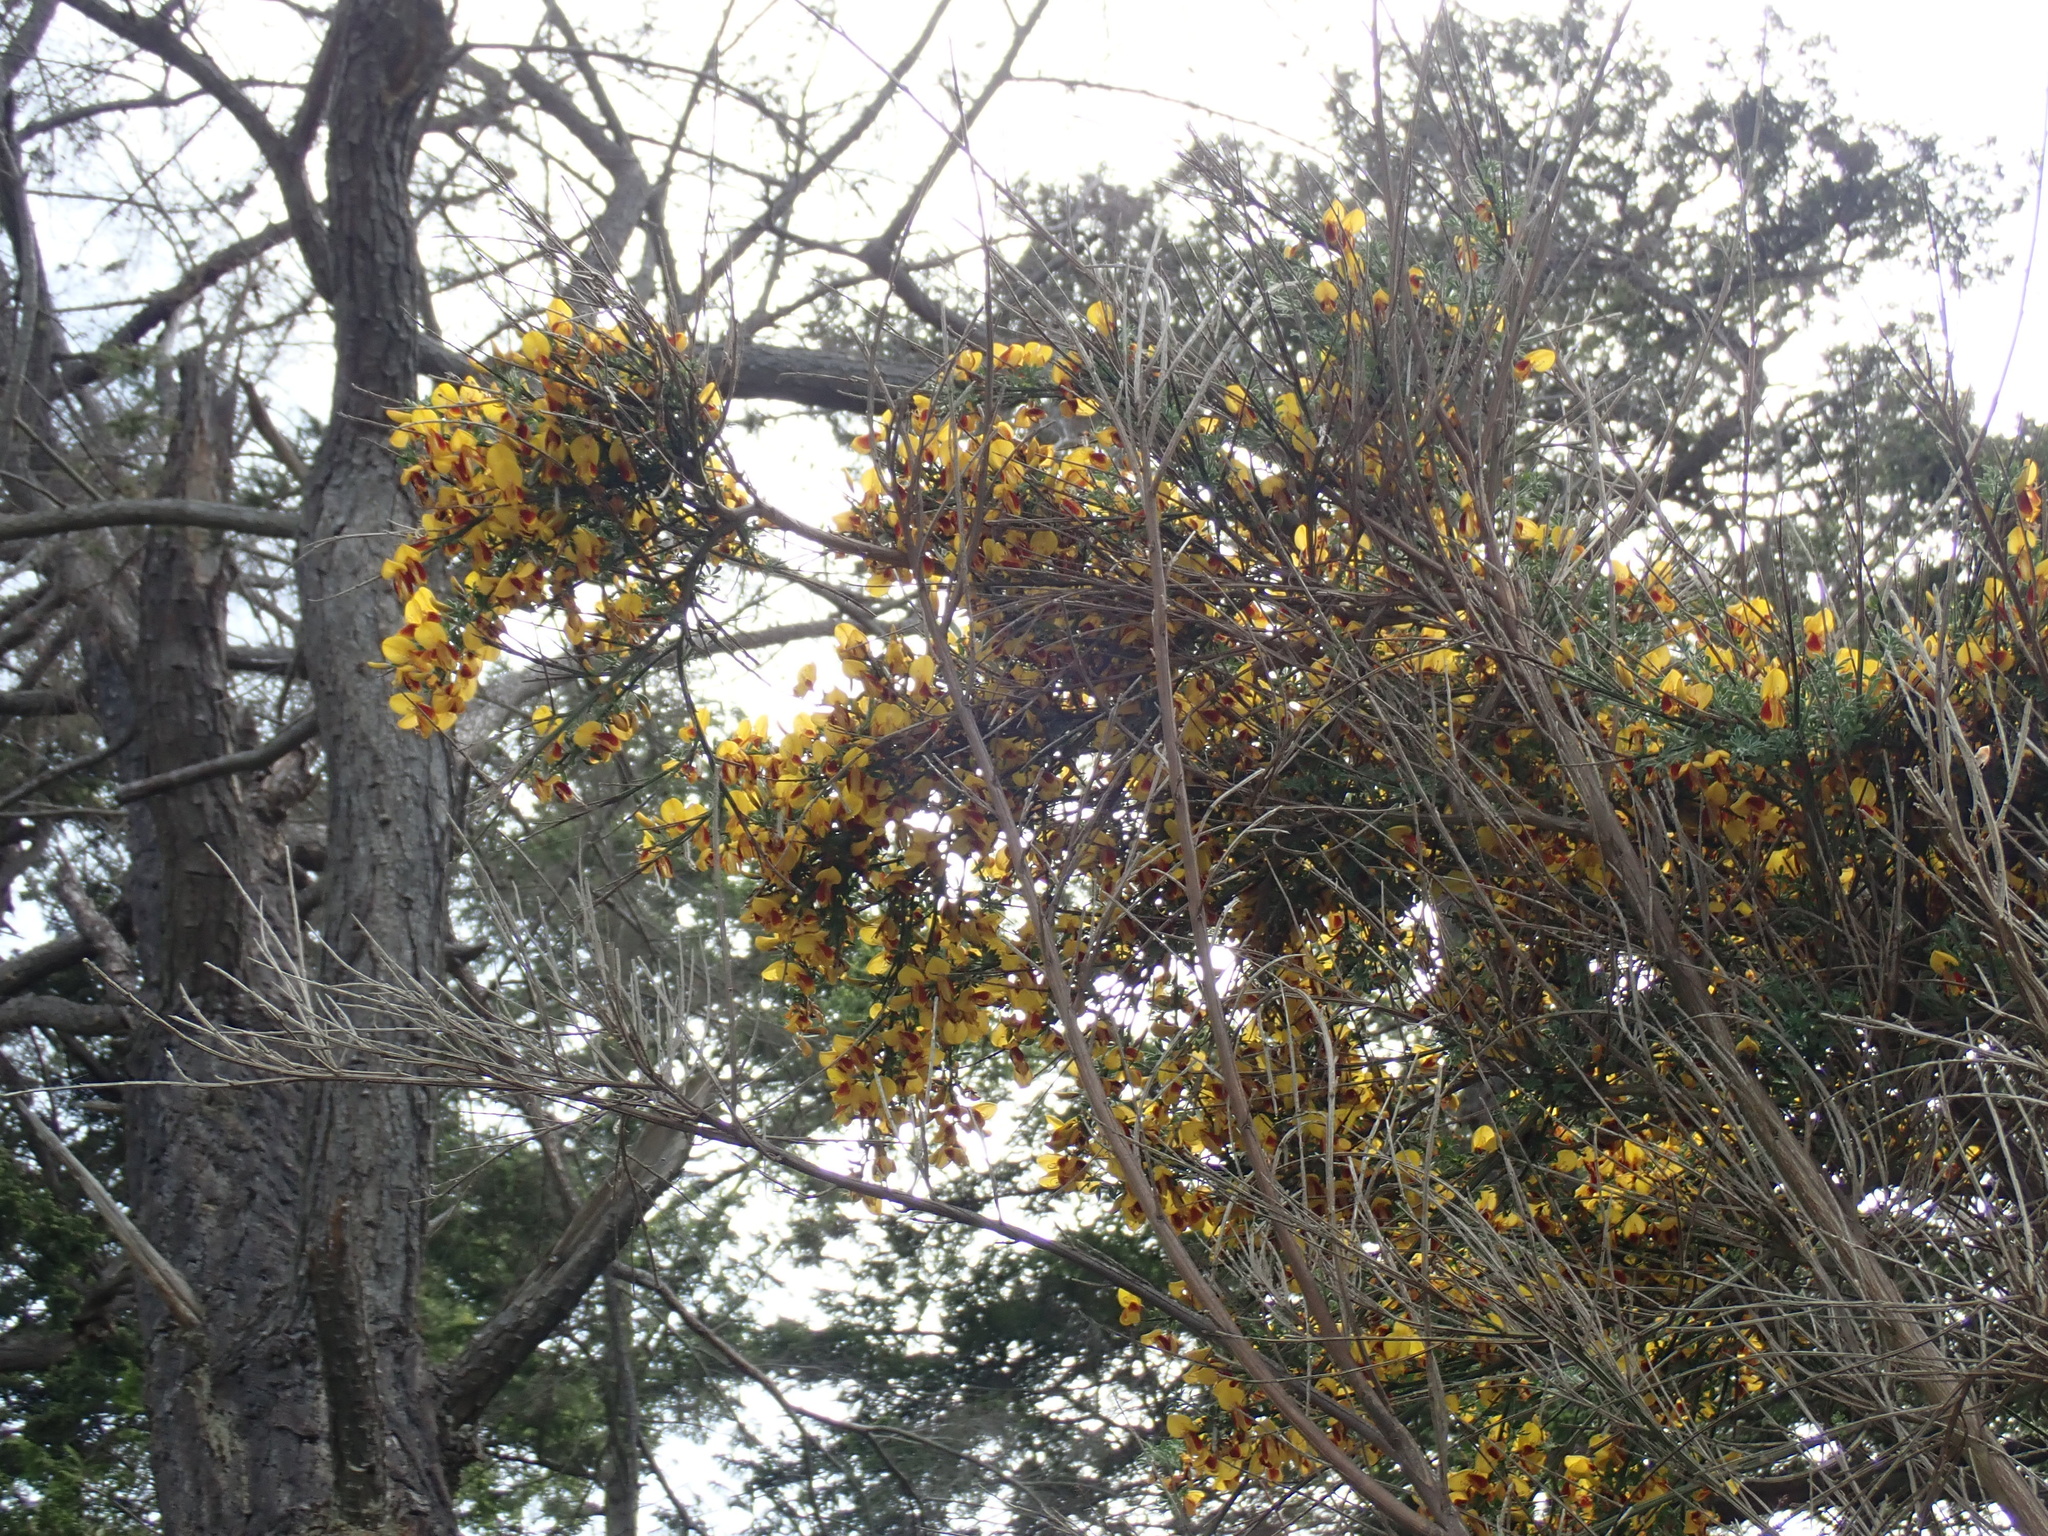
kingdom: Plantae
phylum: Tracheophyta
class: Magnoliopsida
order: Fabales
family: Fabaceae
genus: Cytisus
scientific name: Cytisus scoparius
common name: Scotch broom
